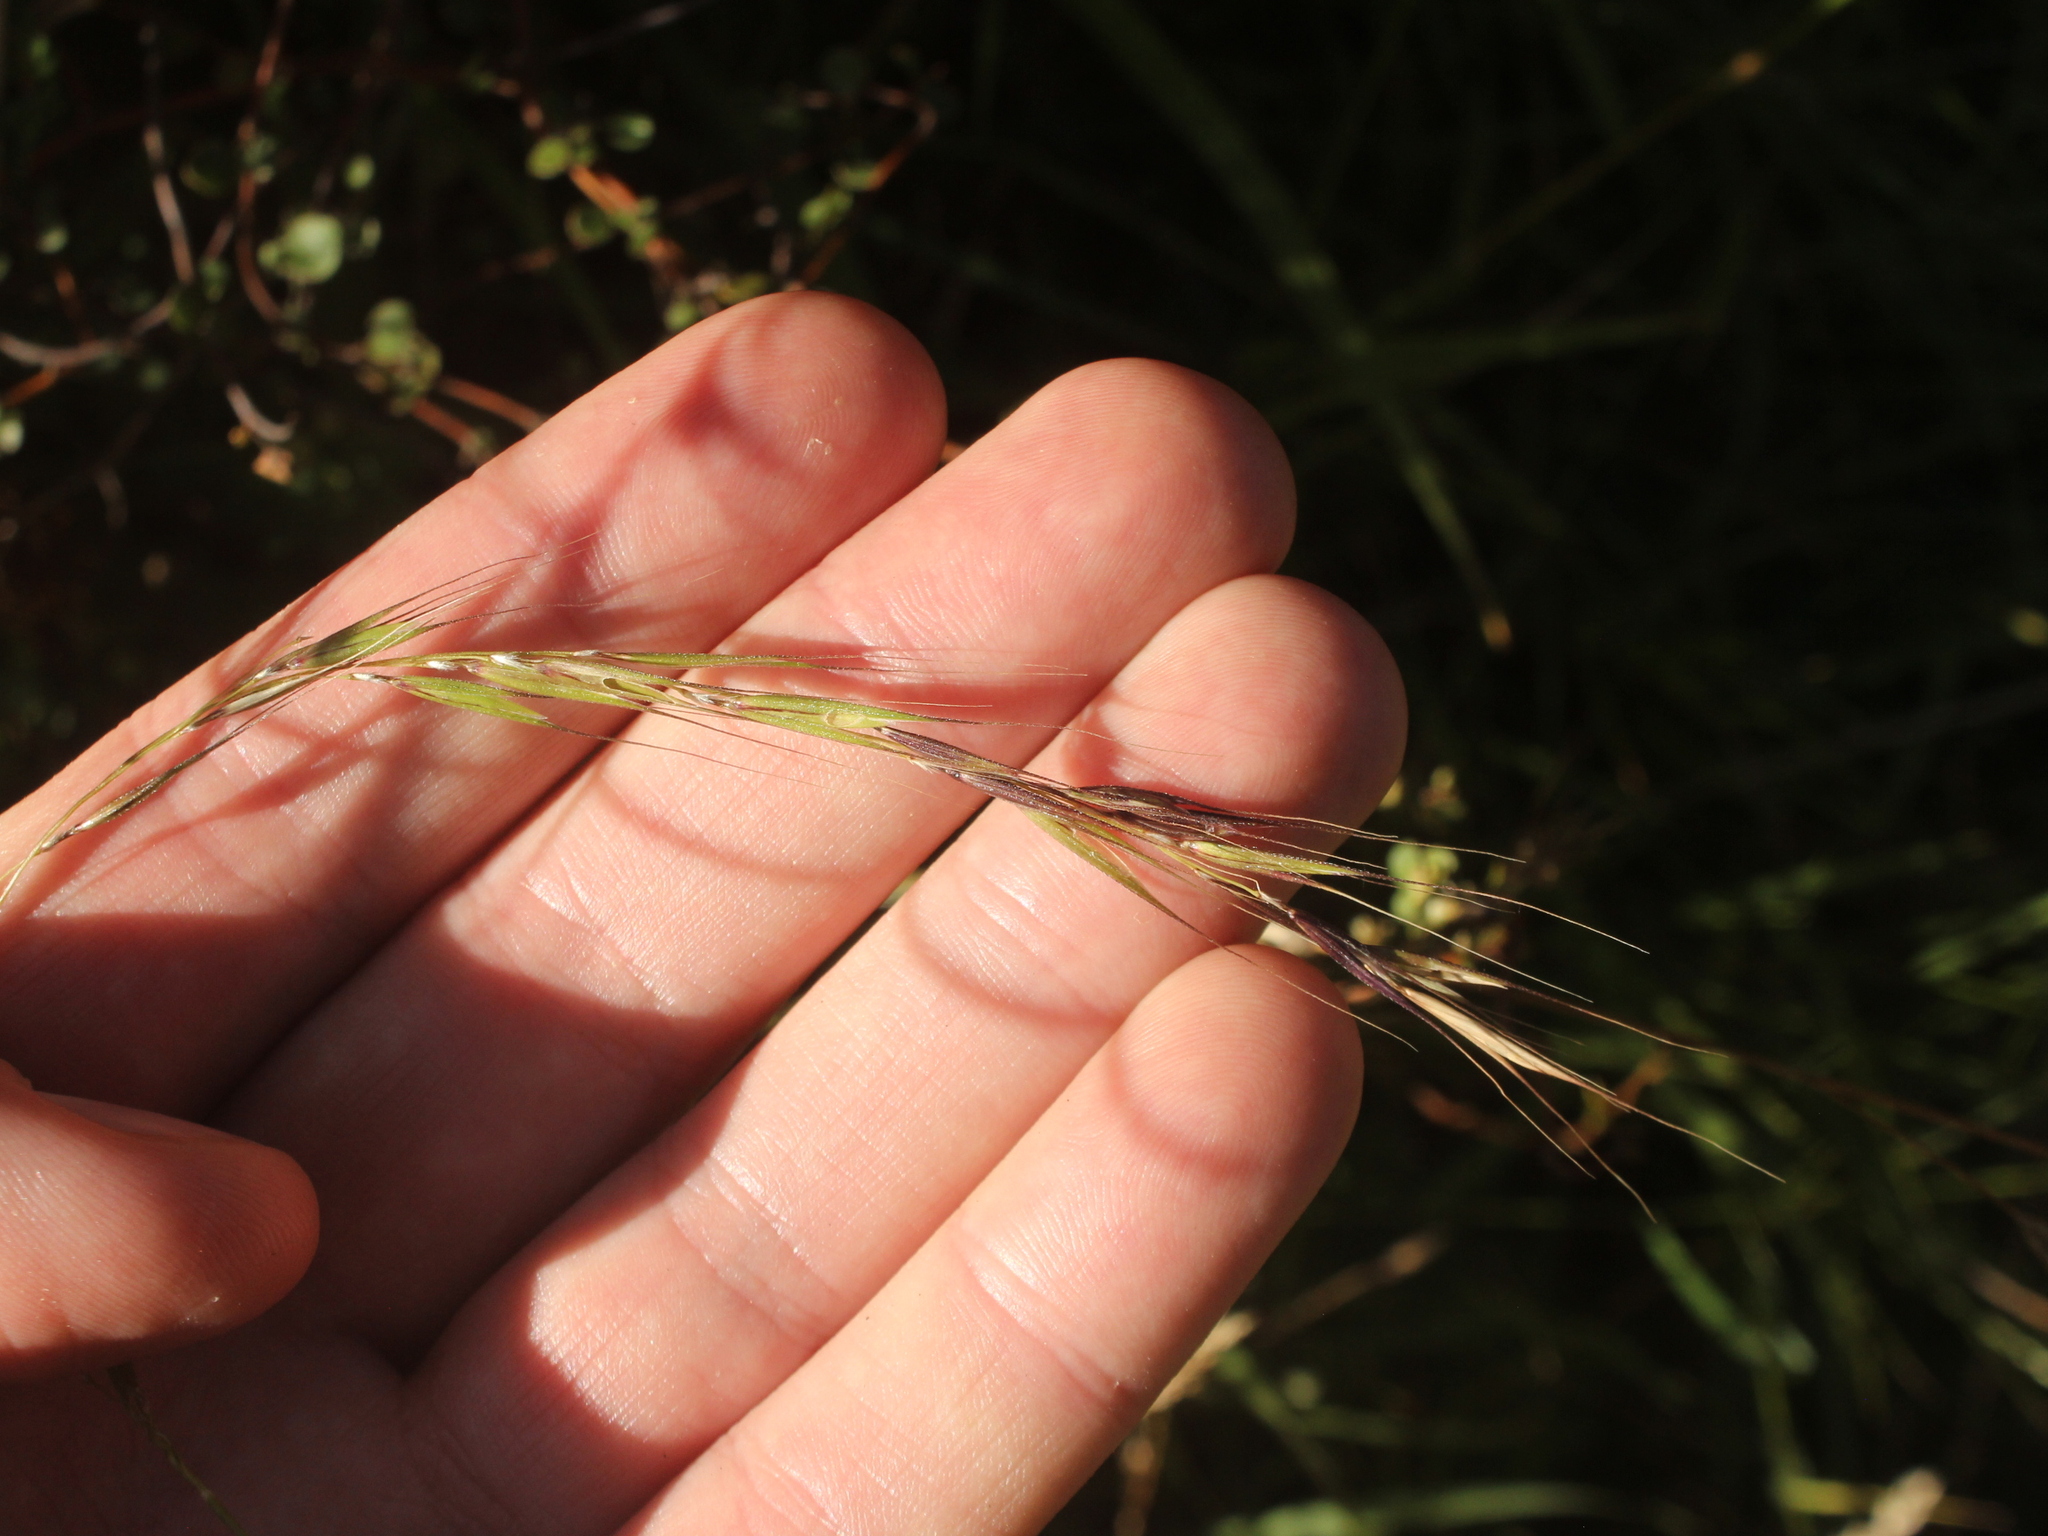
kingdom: Plantae
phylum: Tracheophyta
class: Liliopsida
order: Poales
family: Poaceae
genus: Microlaena
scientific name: Microlaena stipoides
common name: Meadow ricegrass
